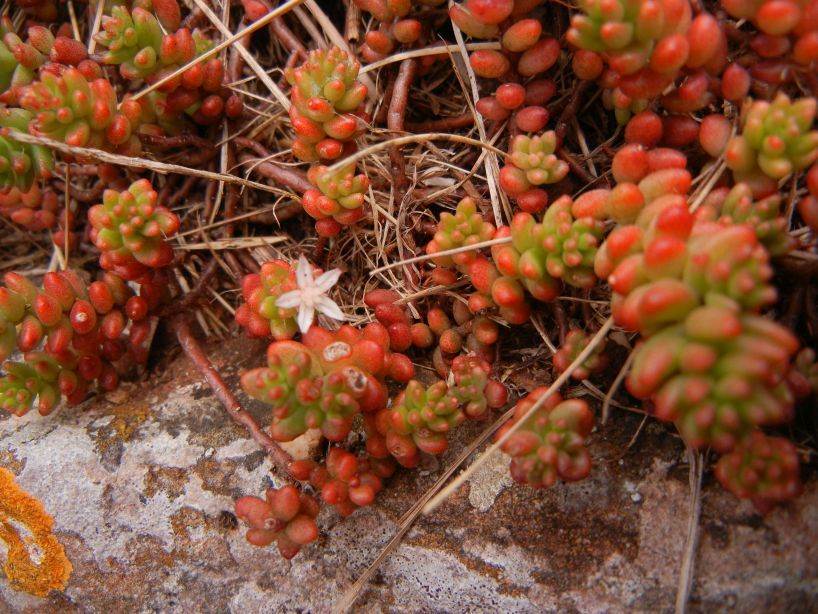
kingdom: Plantae
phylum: Tracheophyta
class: Magnoliopsida
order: Saxifragales
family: Crassulaceae
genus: Sedum
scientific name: Sedum album
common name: White stonecrop
